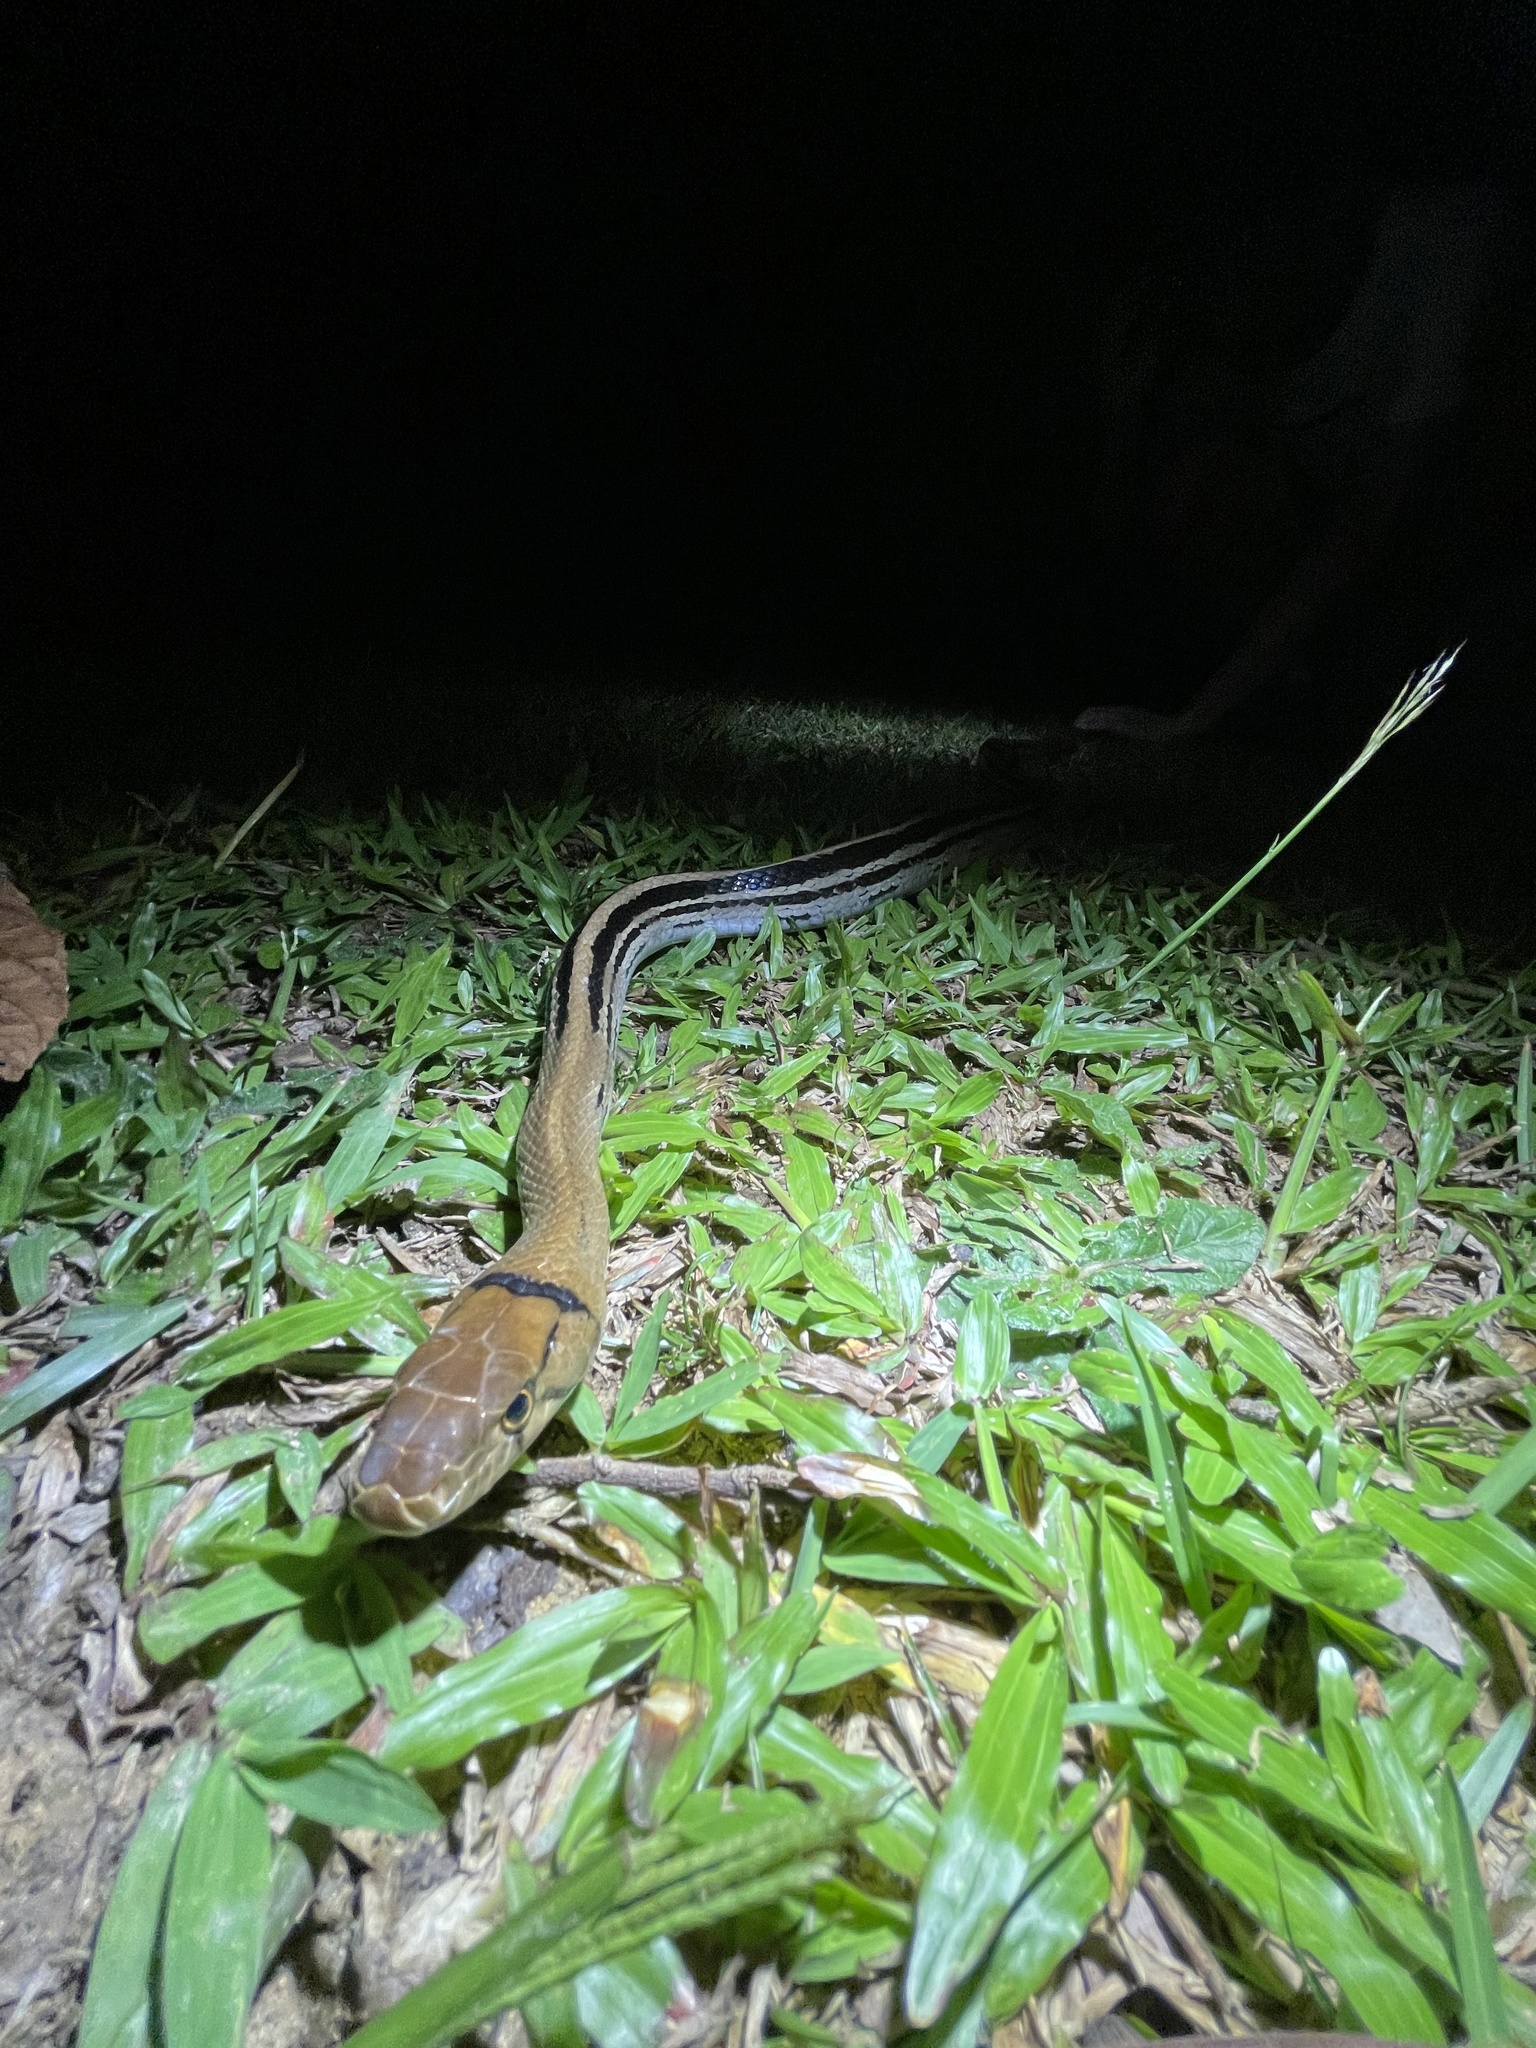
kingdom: Animalia
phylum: Chordata
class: Squamata
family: Colubridae
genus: Coelognathus
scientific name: Coelognathus radiatus
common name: Copperhead rat snake
